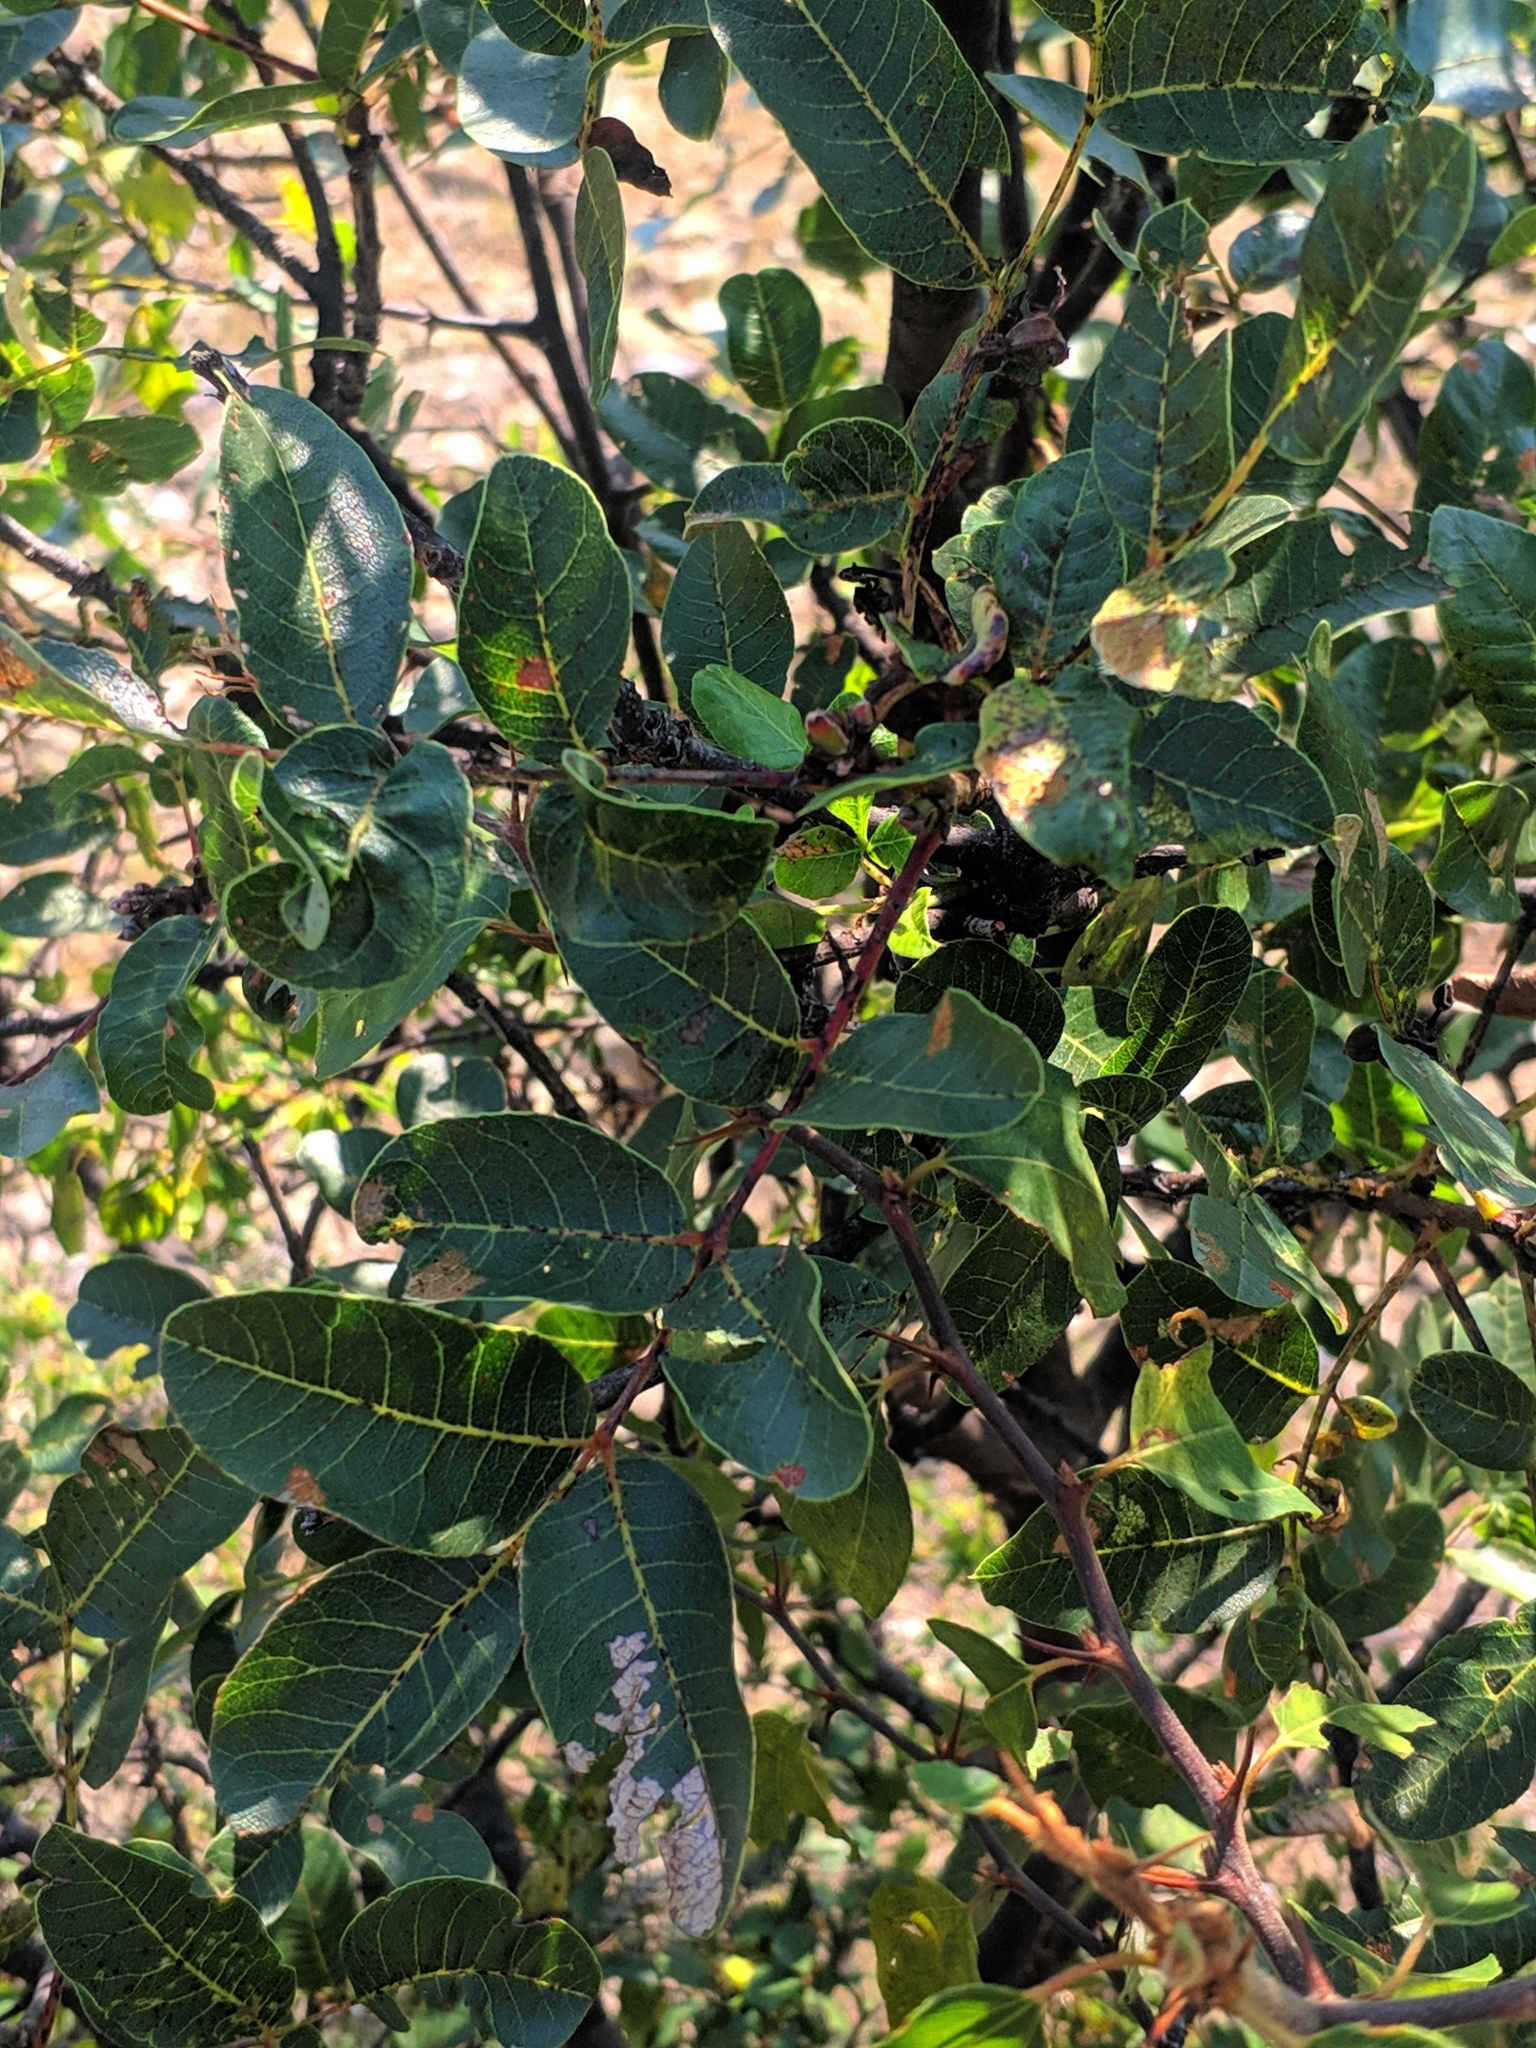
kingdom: Plantae
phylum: Tracheophyta
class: Magnoliopsida
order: Sapindales
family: Anacardiaceae
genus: Pistacia
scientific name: Pistacia terebinthus
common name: Terebinth
